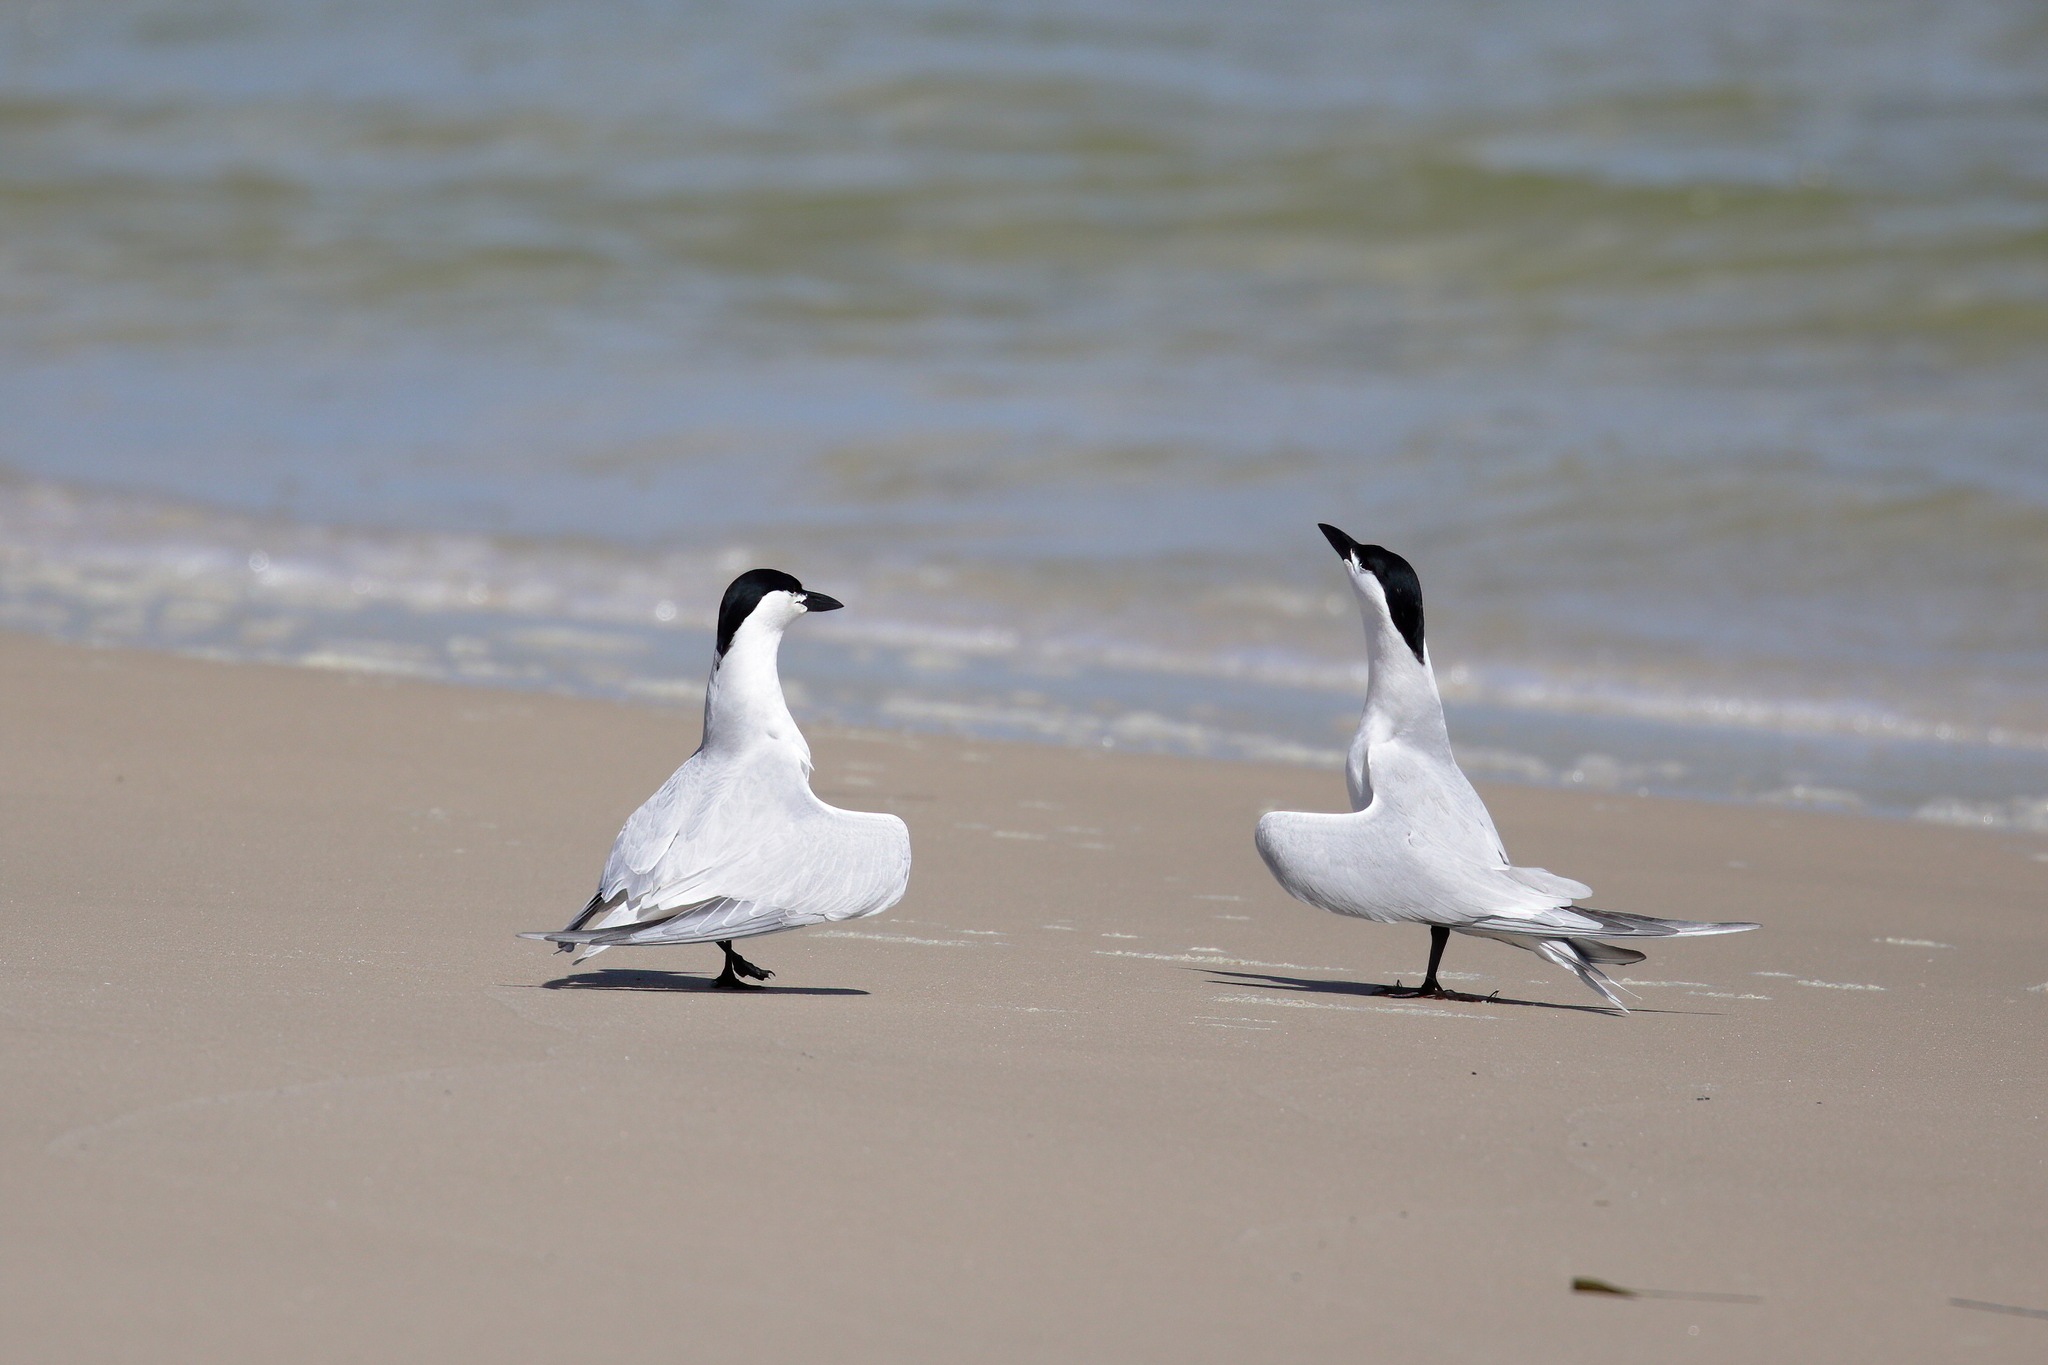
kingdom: Animalia
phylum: Chordata
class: Aves
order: Charadriiformes
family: Laridae
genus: Gelochelidon
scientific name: Gelochelidon nilotica
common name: Gull-billed tern
